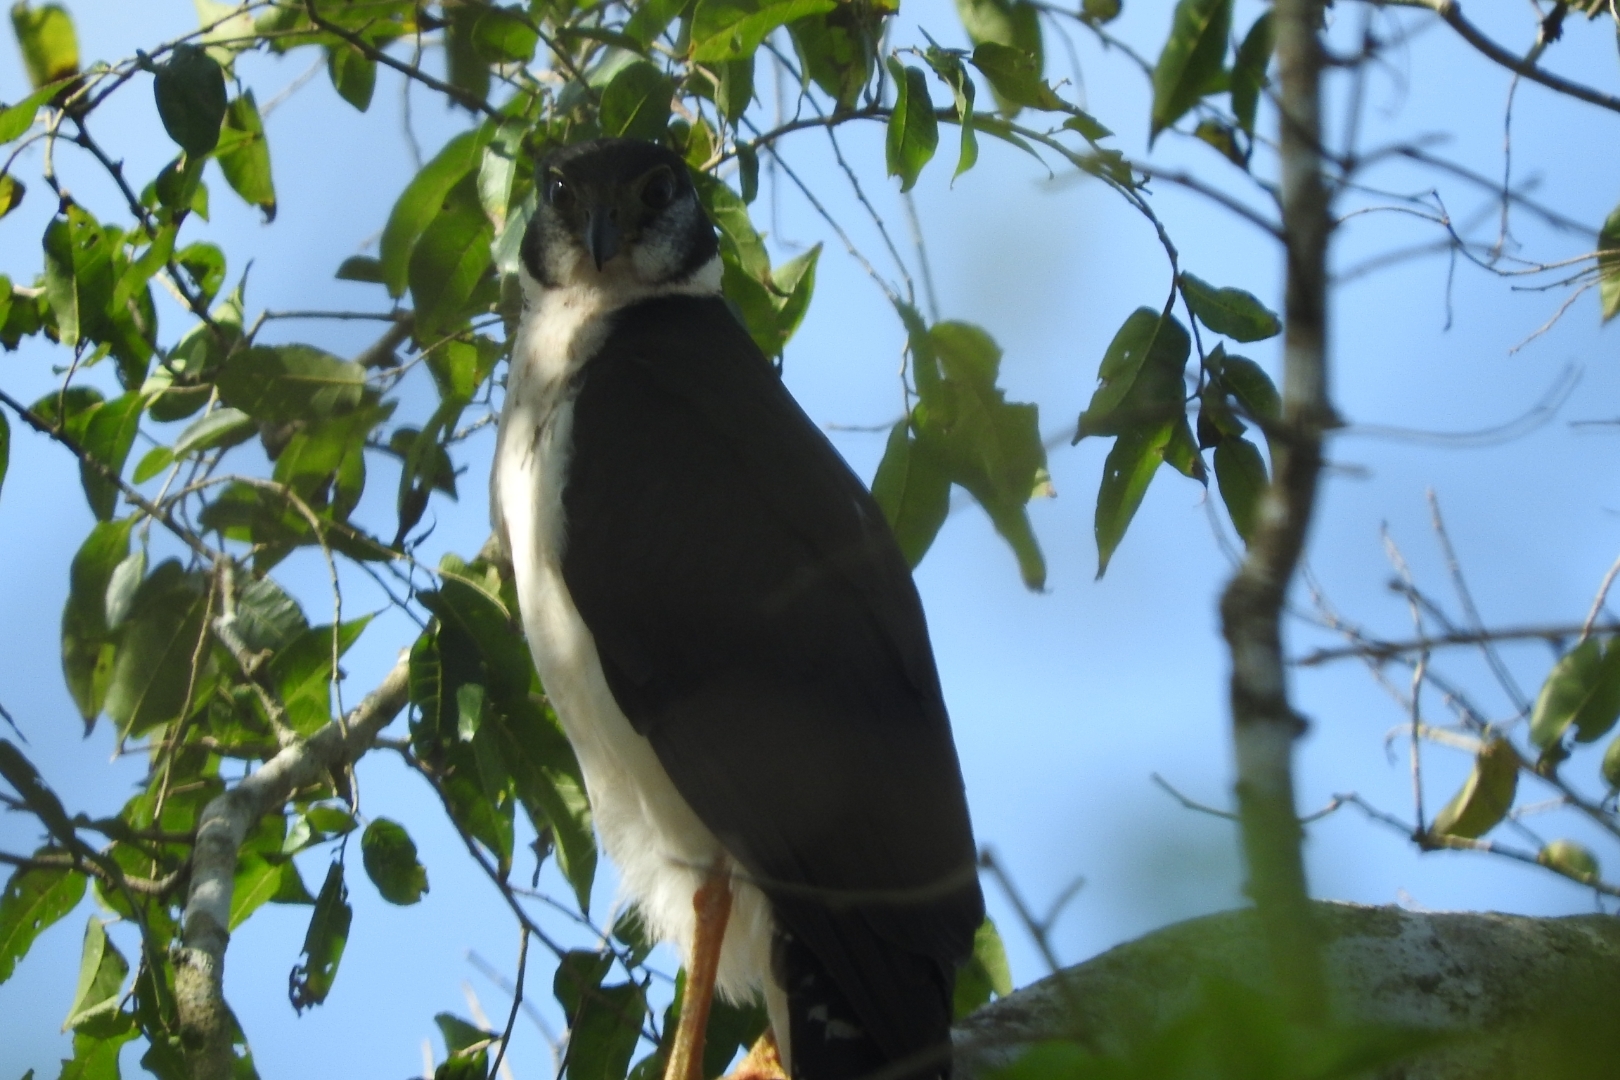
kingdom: Animalia
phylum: Chordata
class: Aves
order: Falconiformes
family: Falconidae
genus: Micrastur
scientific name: Micrastur semitorquatus
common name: Collared forest-falcon
